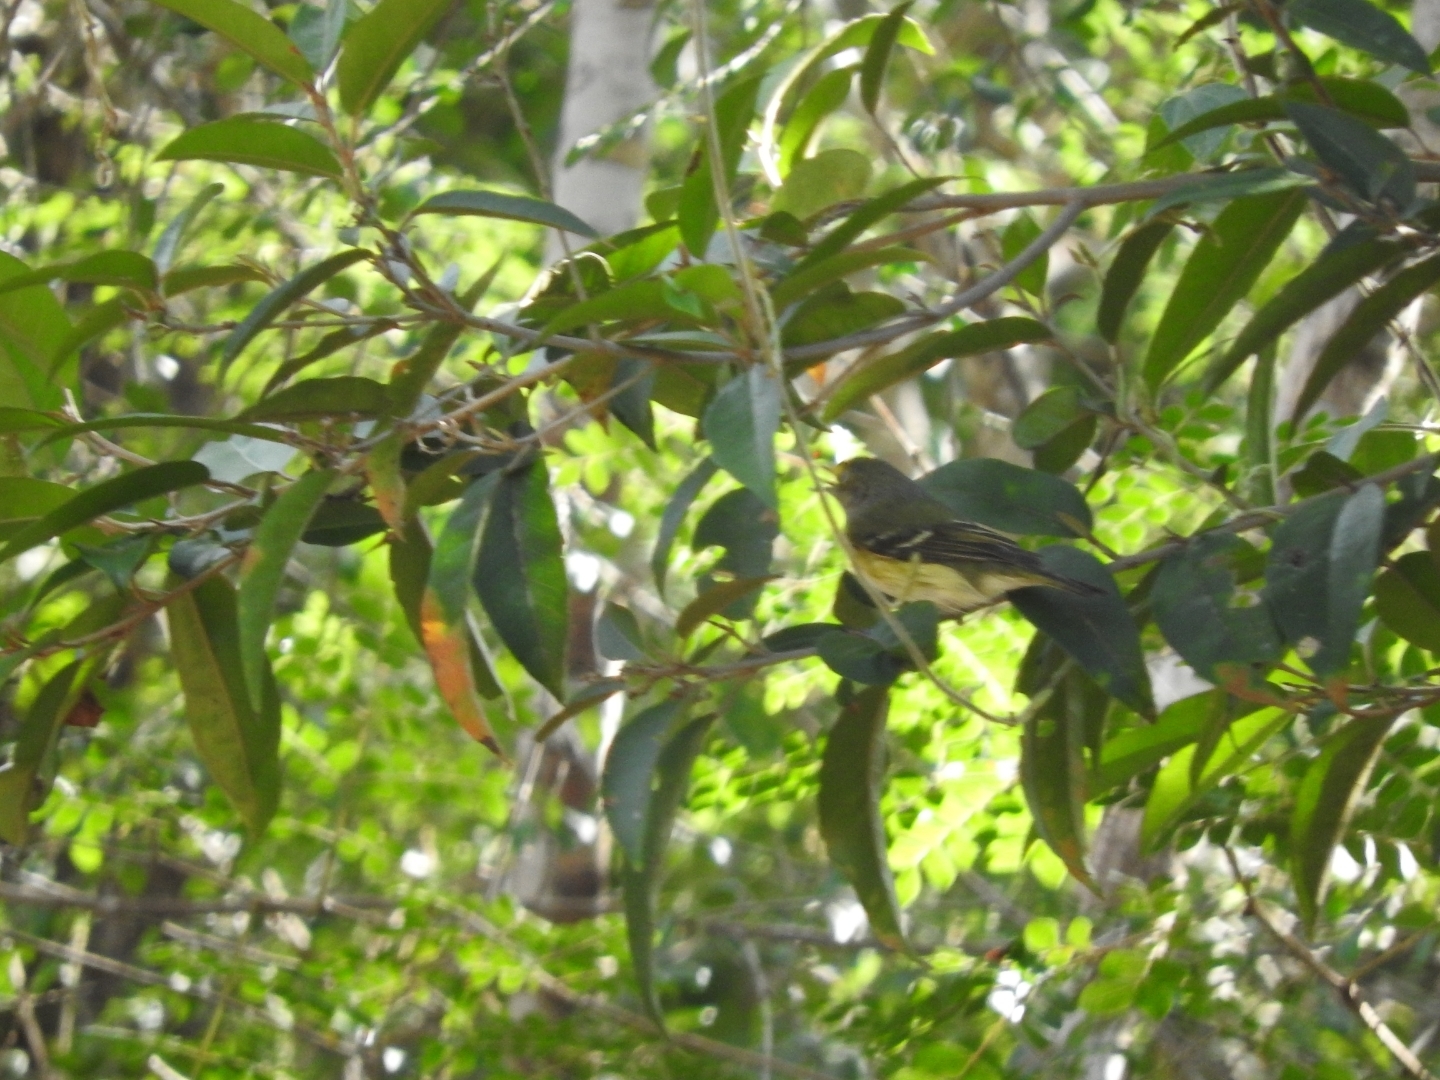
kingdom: Animalia
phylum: Chordata
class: Aves
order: Passeriformes
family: Vireonidae
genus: Vireo
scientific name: Vireo griseus
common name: White-eyed vireo
